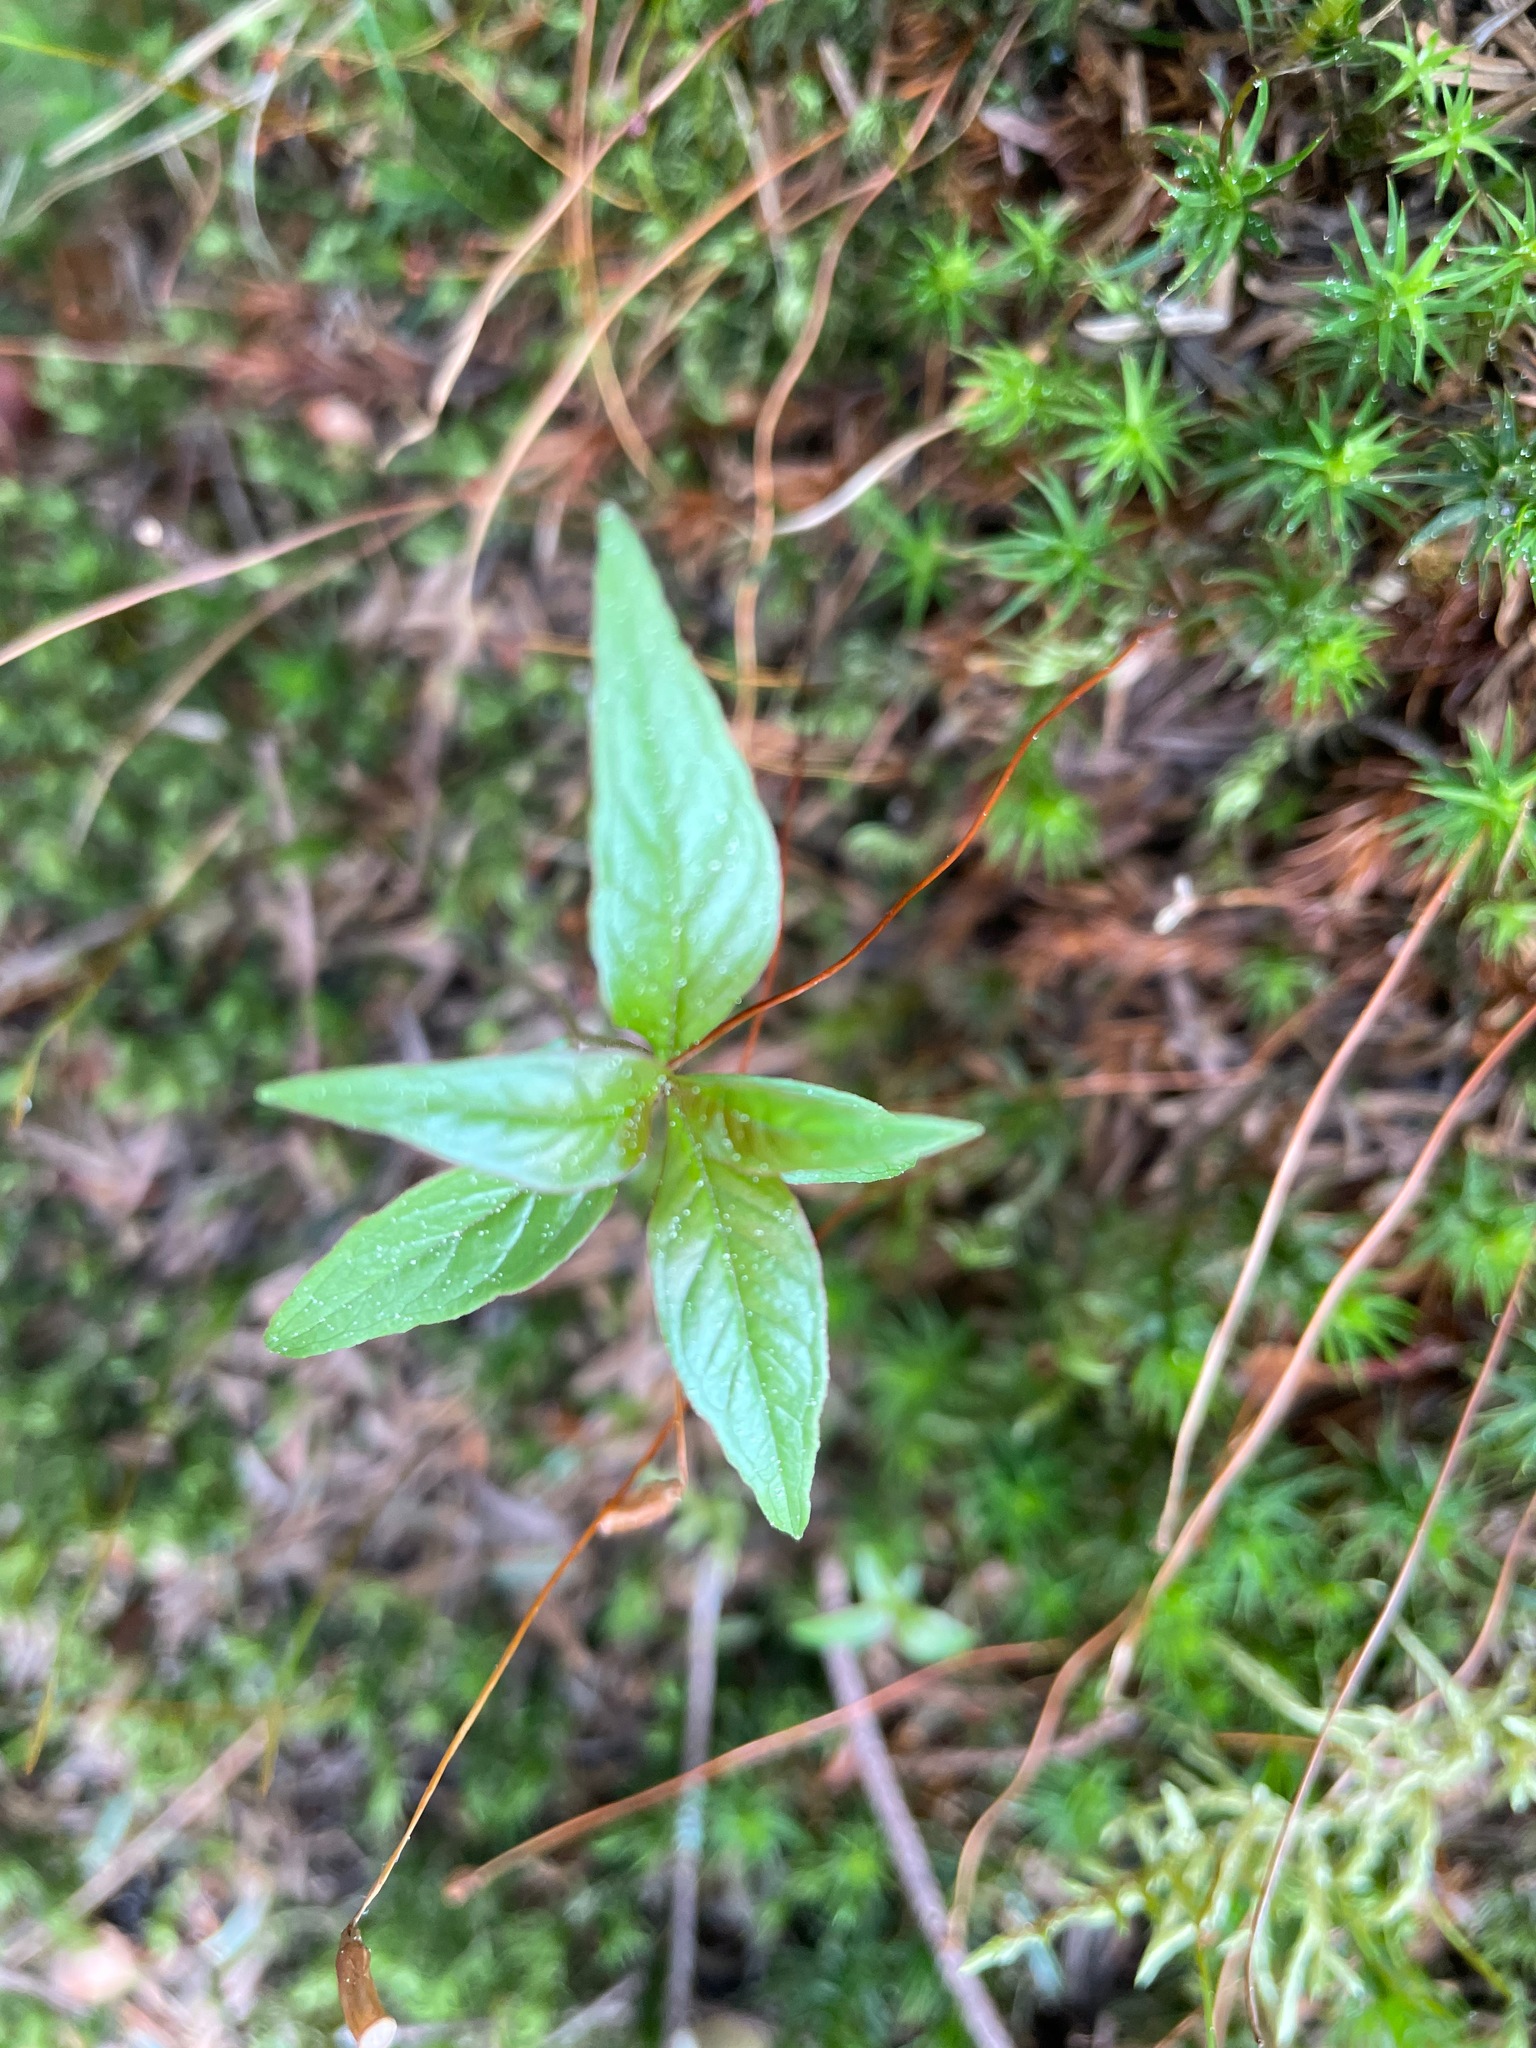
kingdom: Plantae
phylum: Tracheophyta
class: Magnoliopsida
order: Ericales
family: Primulaceae
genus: Lysimachia
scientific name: Lysimachia borealis
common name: American starflower
